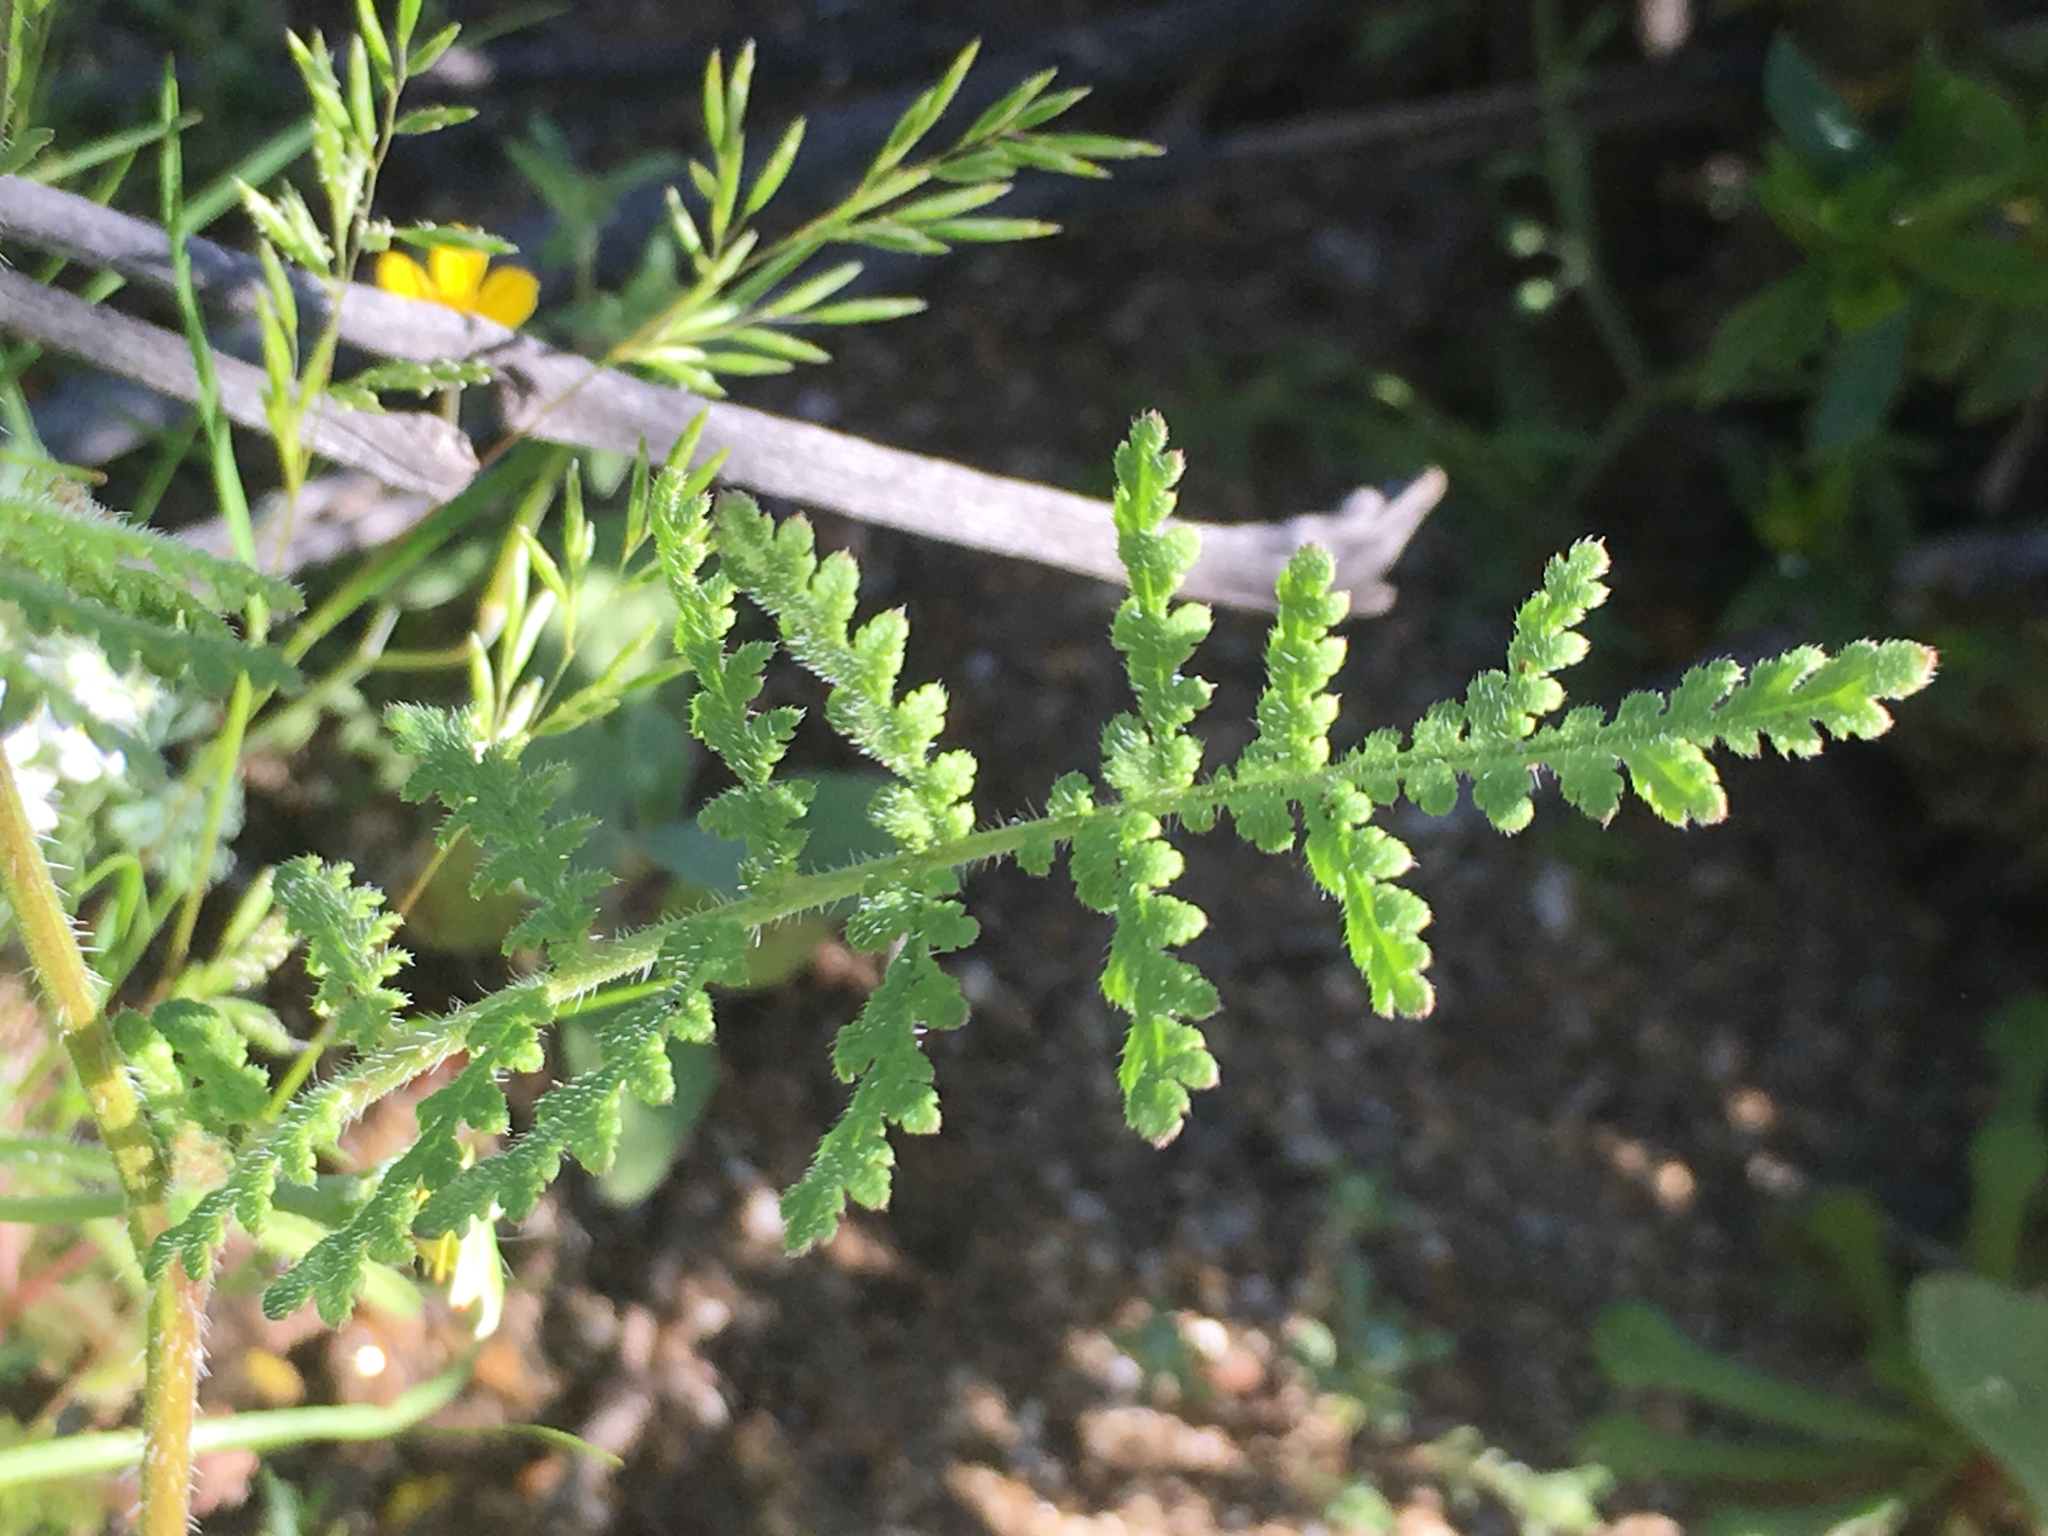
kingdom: Plantae
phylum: Tracheophyta
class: Magnoliopsida
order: Boraginales
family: Hydrophyllaceae
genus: Phacelia
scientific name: Phacelia distans
